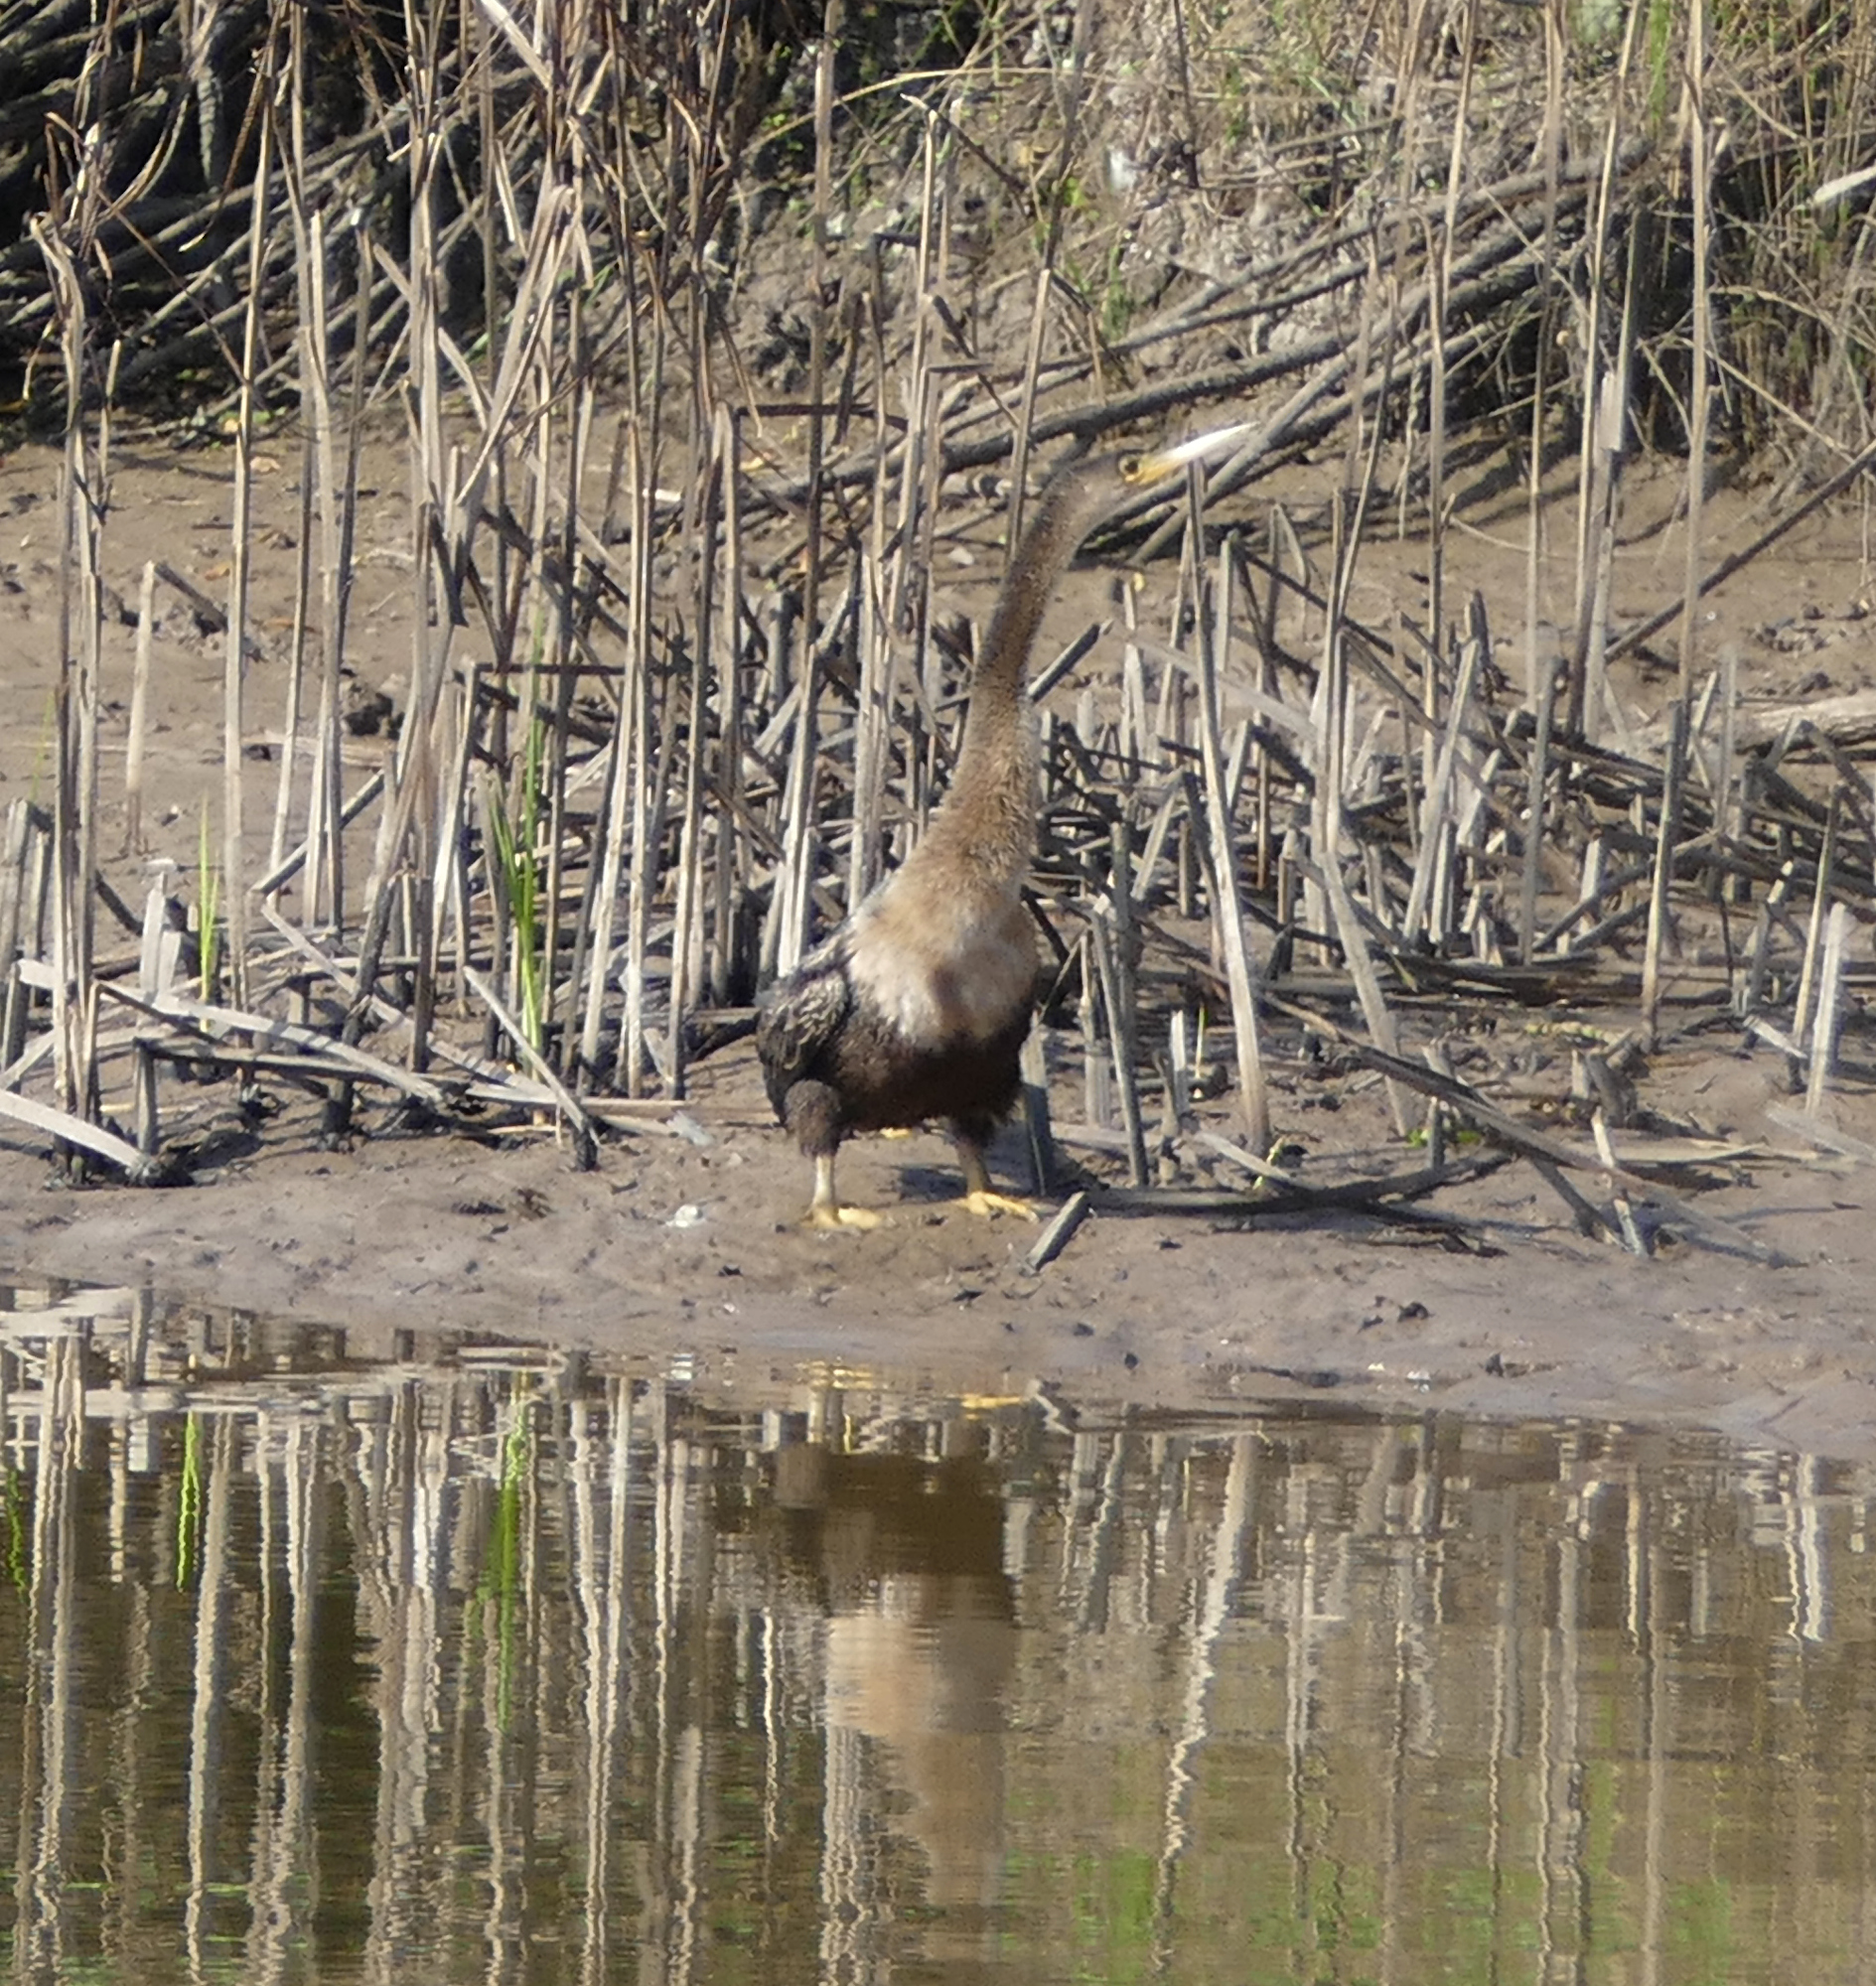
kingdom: Animalia
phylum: Chordata
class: Aves
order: Suliformes
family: Anhingidae
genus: Anhinga
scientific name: Anhinga anhinga
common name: Anhinga
